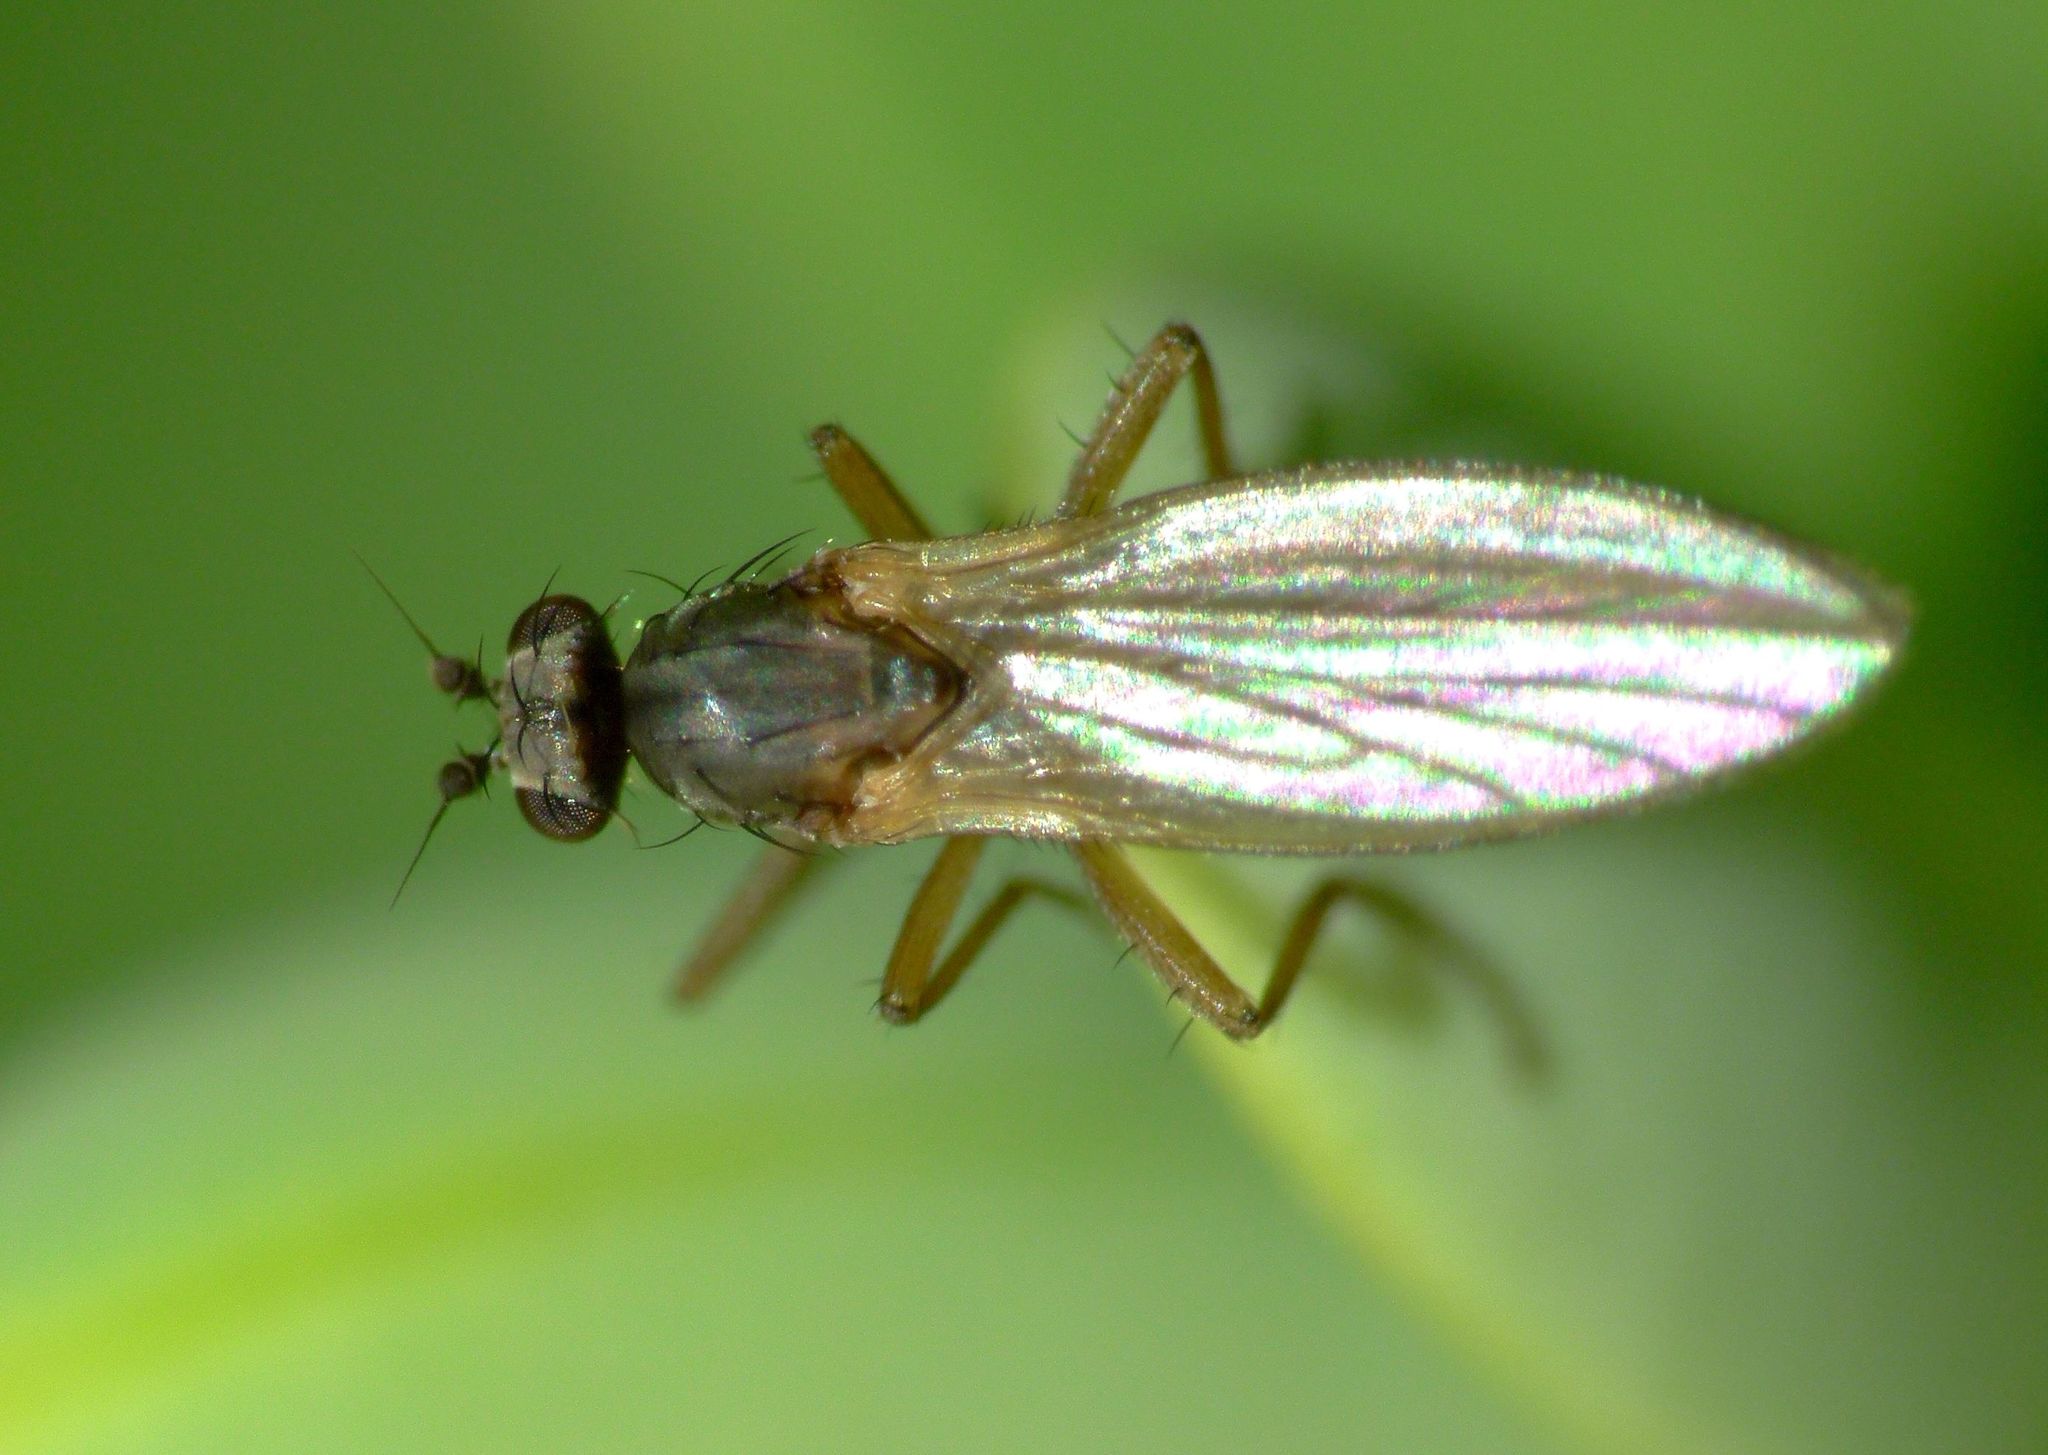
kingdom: Animalia
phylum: Arthropoda
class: Insecta
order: Diptera
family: Lonchopteridae
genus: Lonchoptera
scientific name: Lonchoptera bifurcata
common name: Spear-winged fly
